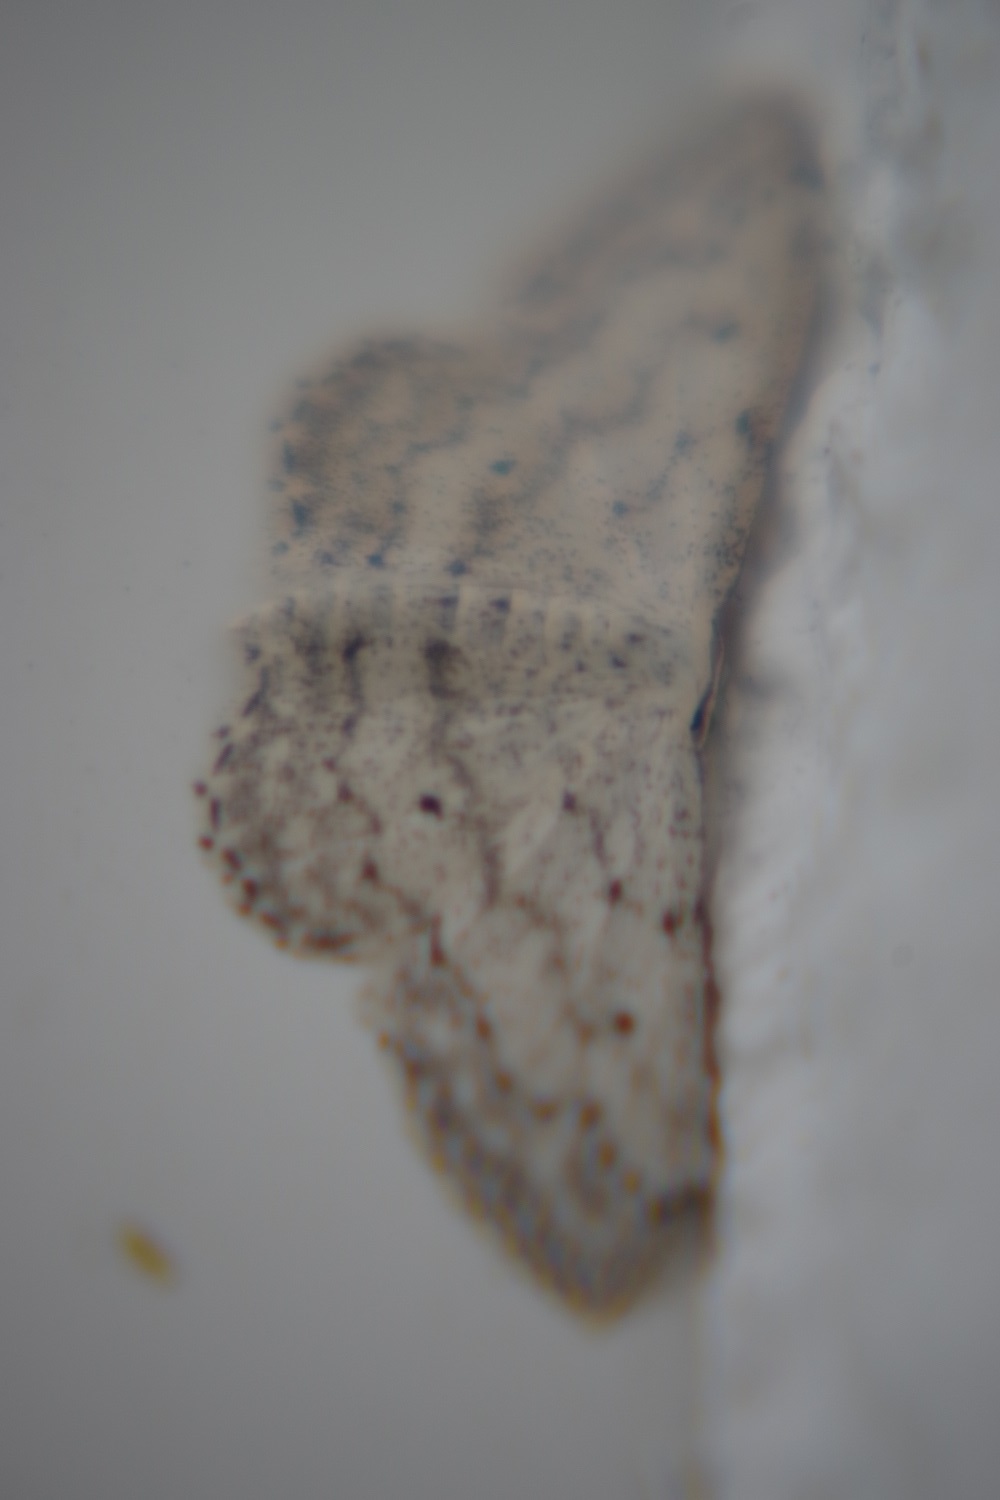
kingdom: Animalia
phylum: Arthropoda
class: Insecta
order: Lepidoptera
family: Geometridae
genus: Idaea
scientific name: Idaea seriata
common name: Small dusty wave
